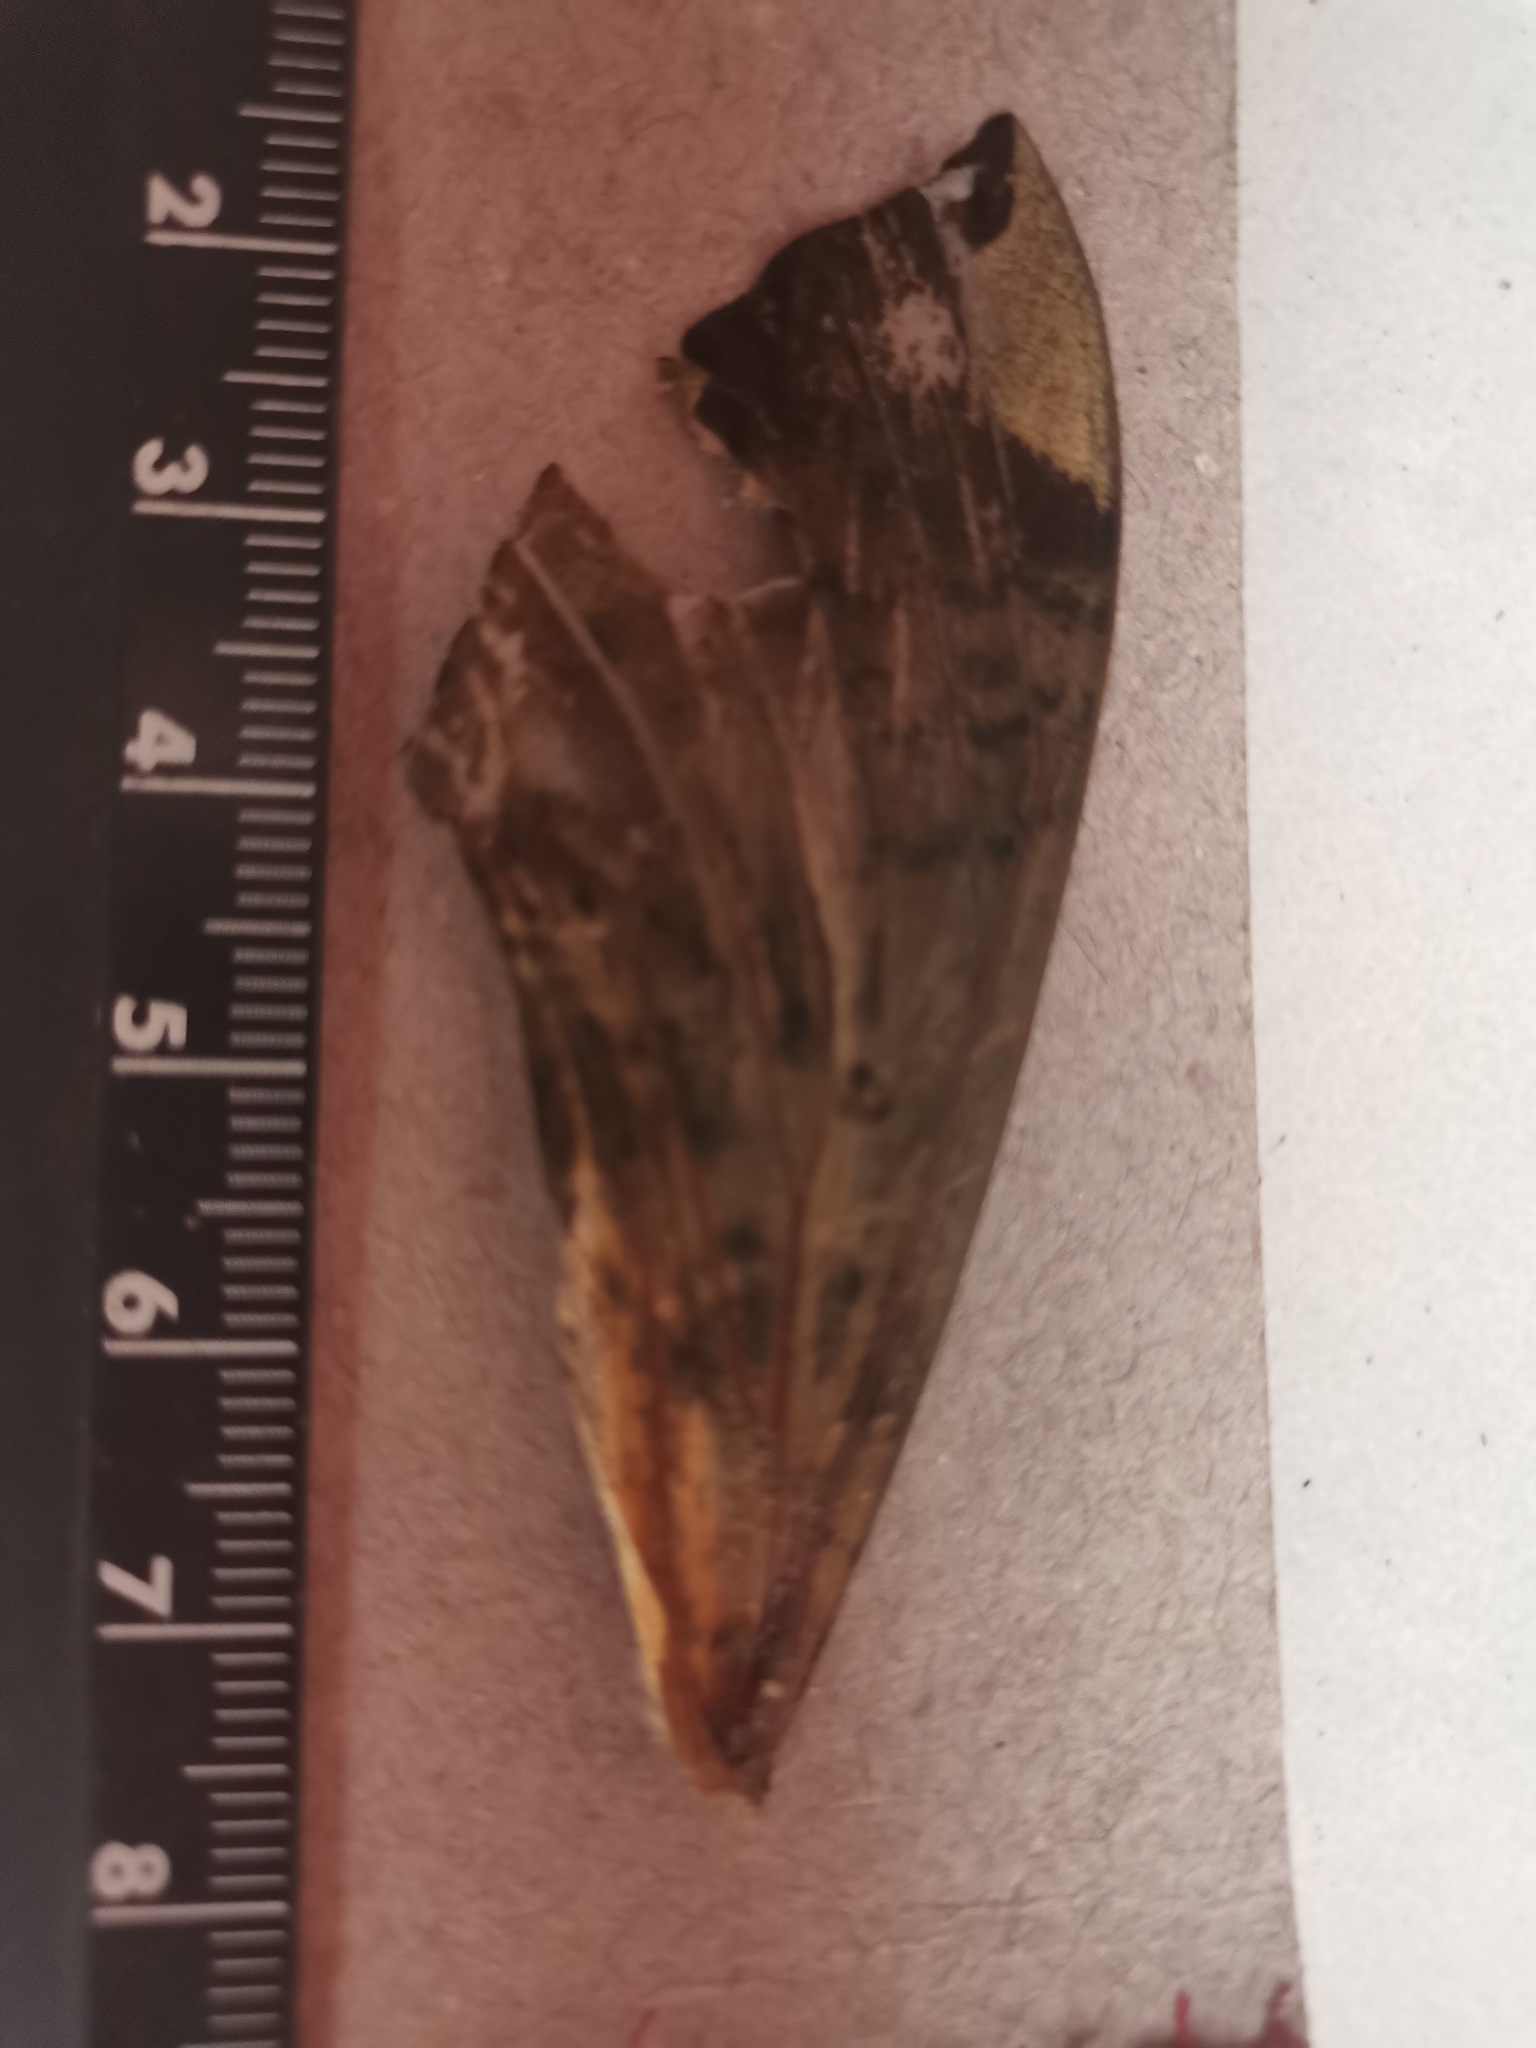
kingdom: Animalia
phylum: Arthropoda
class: Insecta
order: Lepidoptera
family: Sphingidae
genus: Pachylia
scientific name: Pachylia ficus
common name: Fig sphinx
